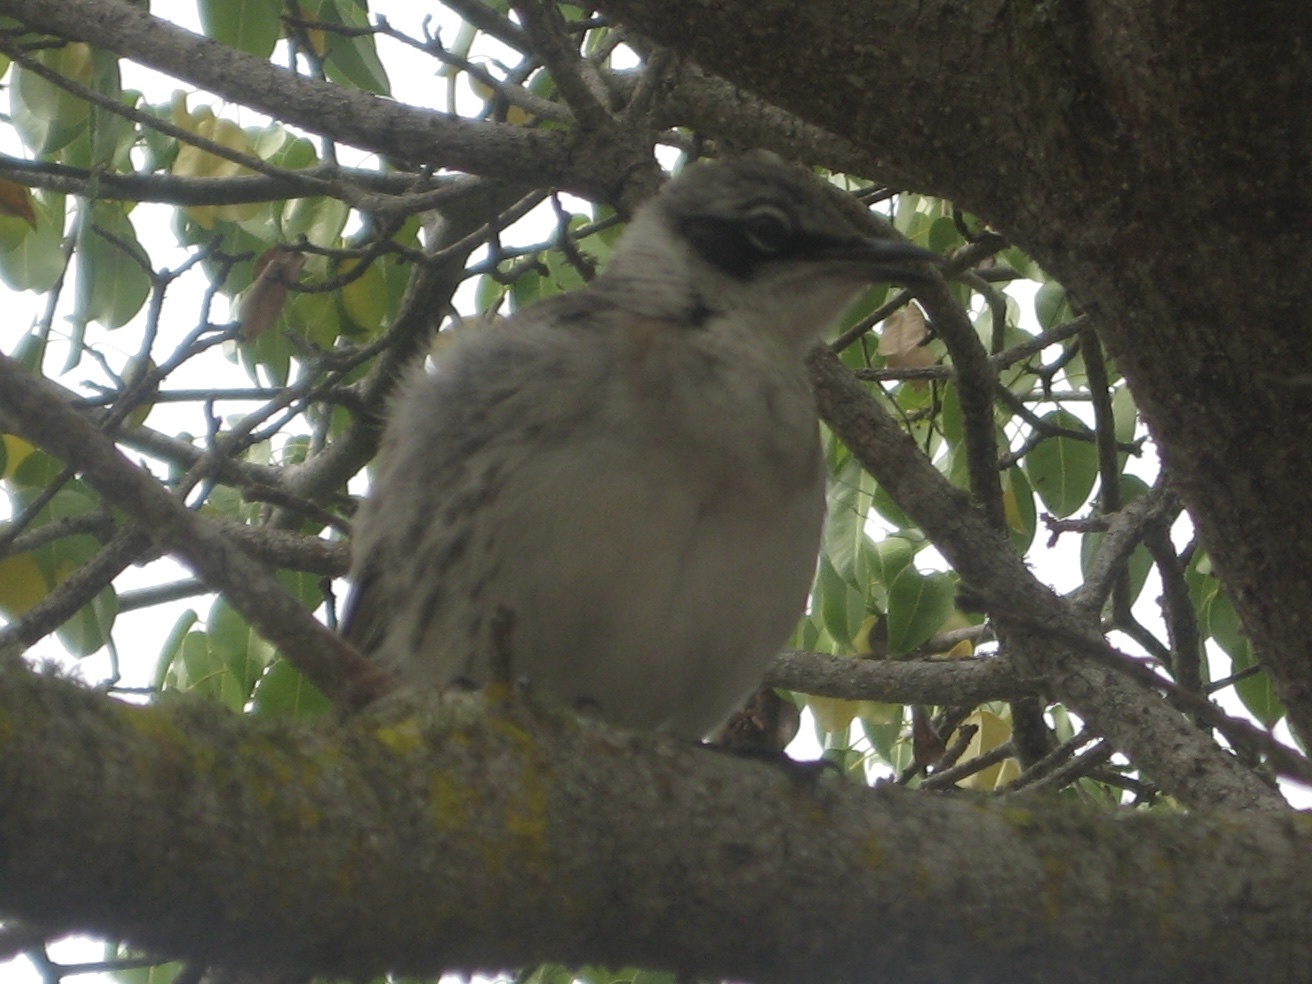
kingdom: Animalia
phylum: Chordata
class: Aves
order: Passeriformes
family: Mimidae
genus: Mimus
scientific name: Mimus parvulus
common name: Galapagos mockingbird
